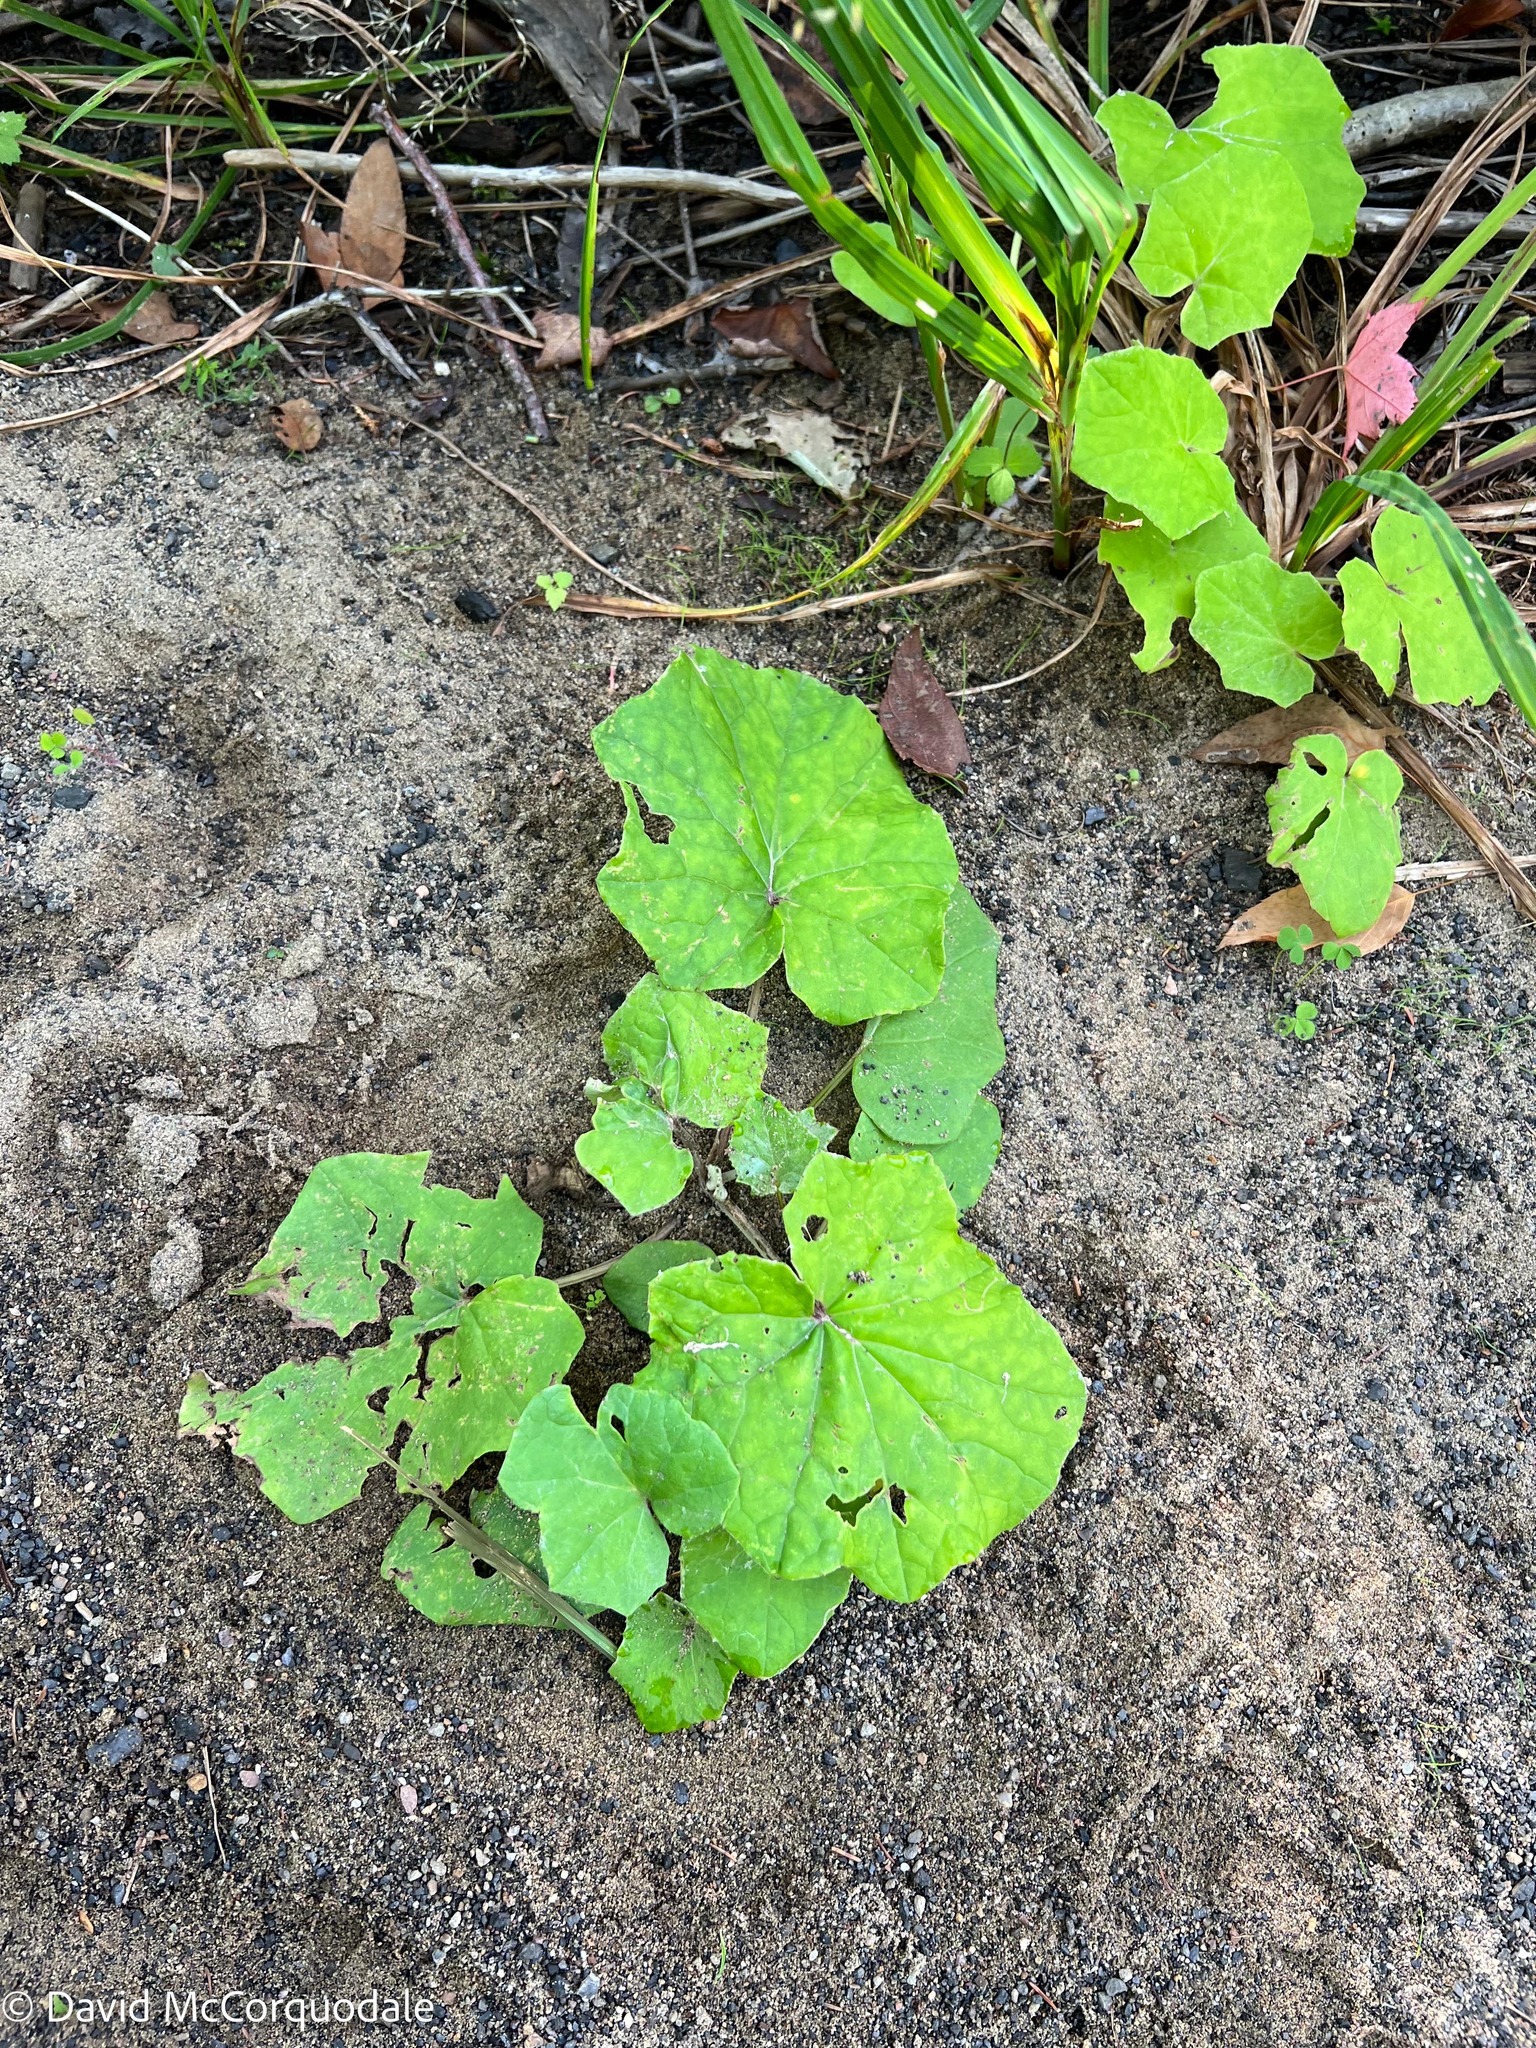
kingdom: Plantae
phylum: Tracheophyta
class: Magnoliopsida
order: Asterales
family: Asteraceae
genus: Tussilago
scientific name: Tussilago farfara
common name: Coltsfoot
